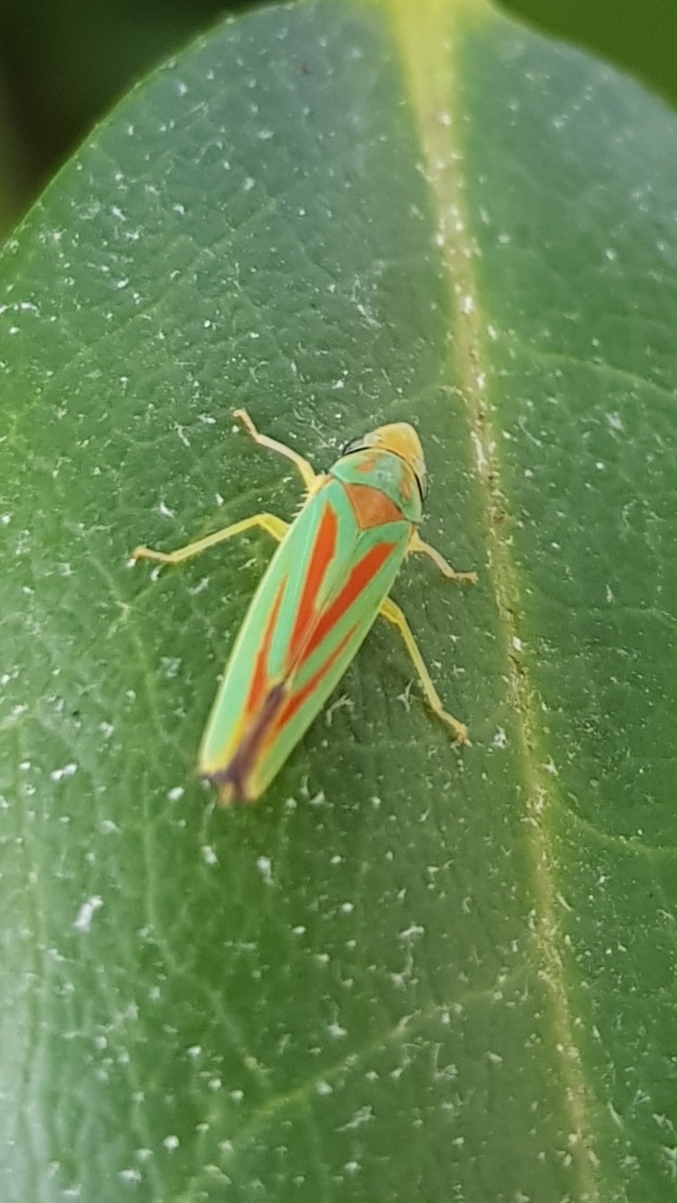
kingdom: Animalia
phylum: Arthropoda
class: Insecta
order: Hemiptera
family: Cicadellidae
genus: Graphocephala
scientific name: Graphocephala fennahi
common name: Rhododendron leafhopper
